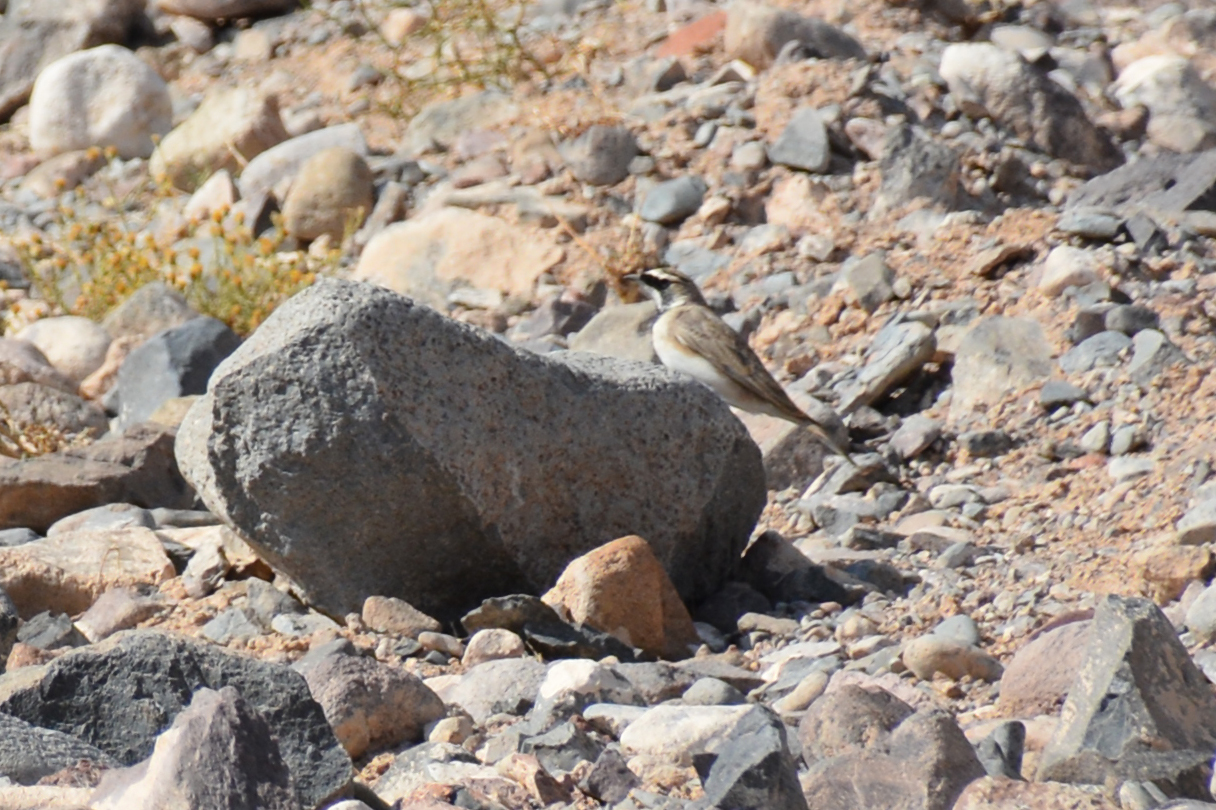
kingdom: Animalia
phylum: Chordata
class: Aves
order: Passeriformes
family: Alaudidae
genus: Eremophila
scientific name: Eremophila alpestris
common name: Horned lark
